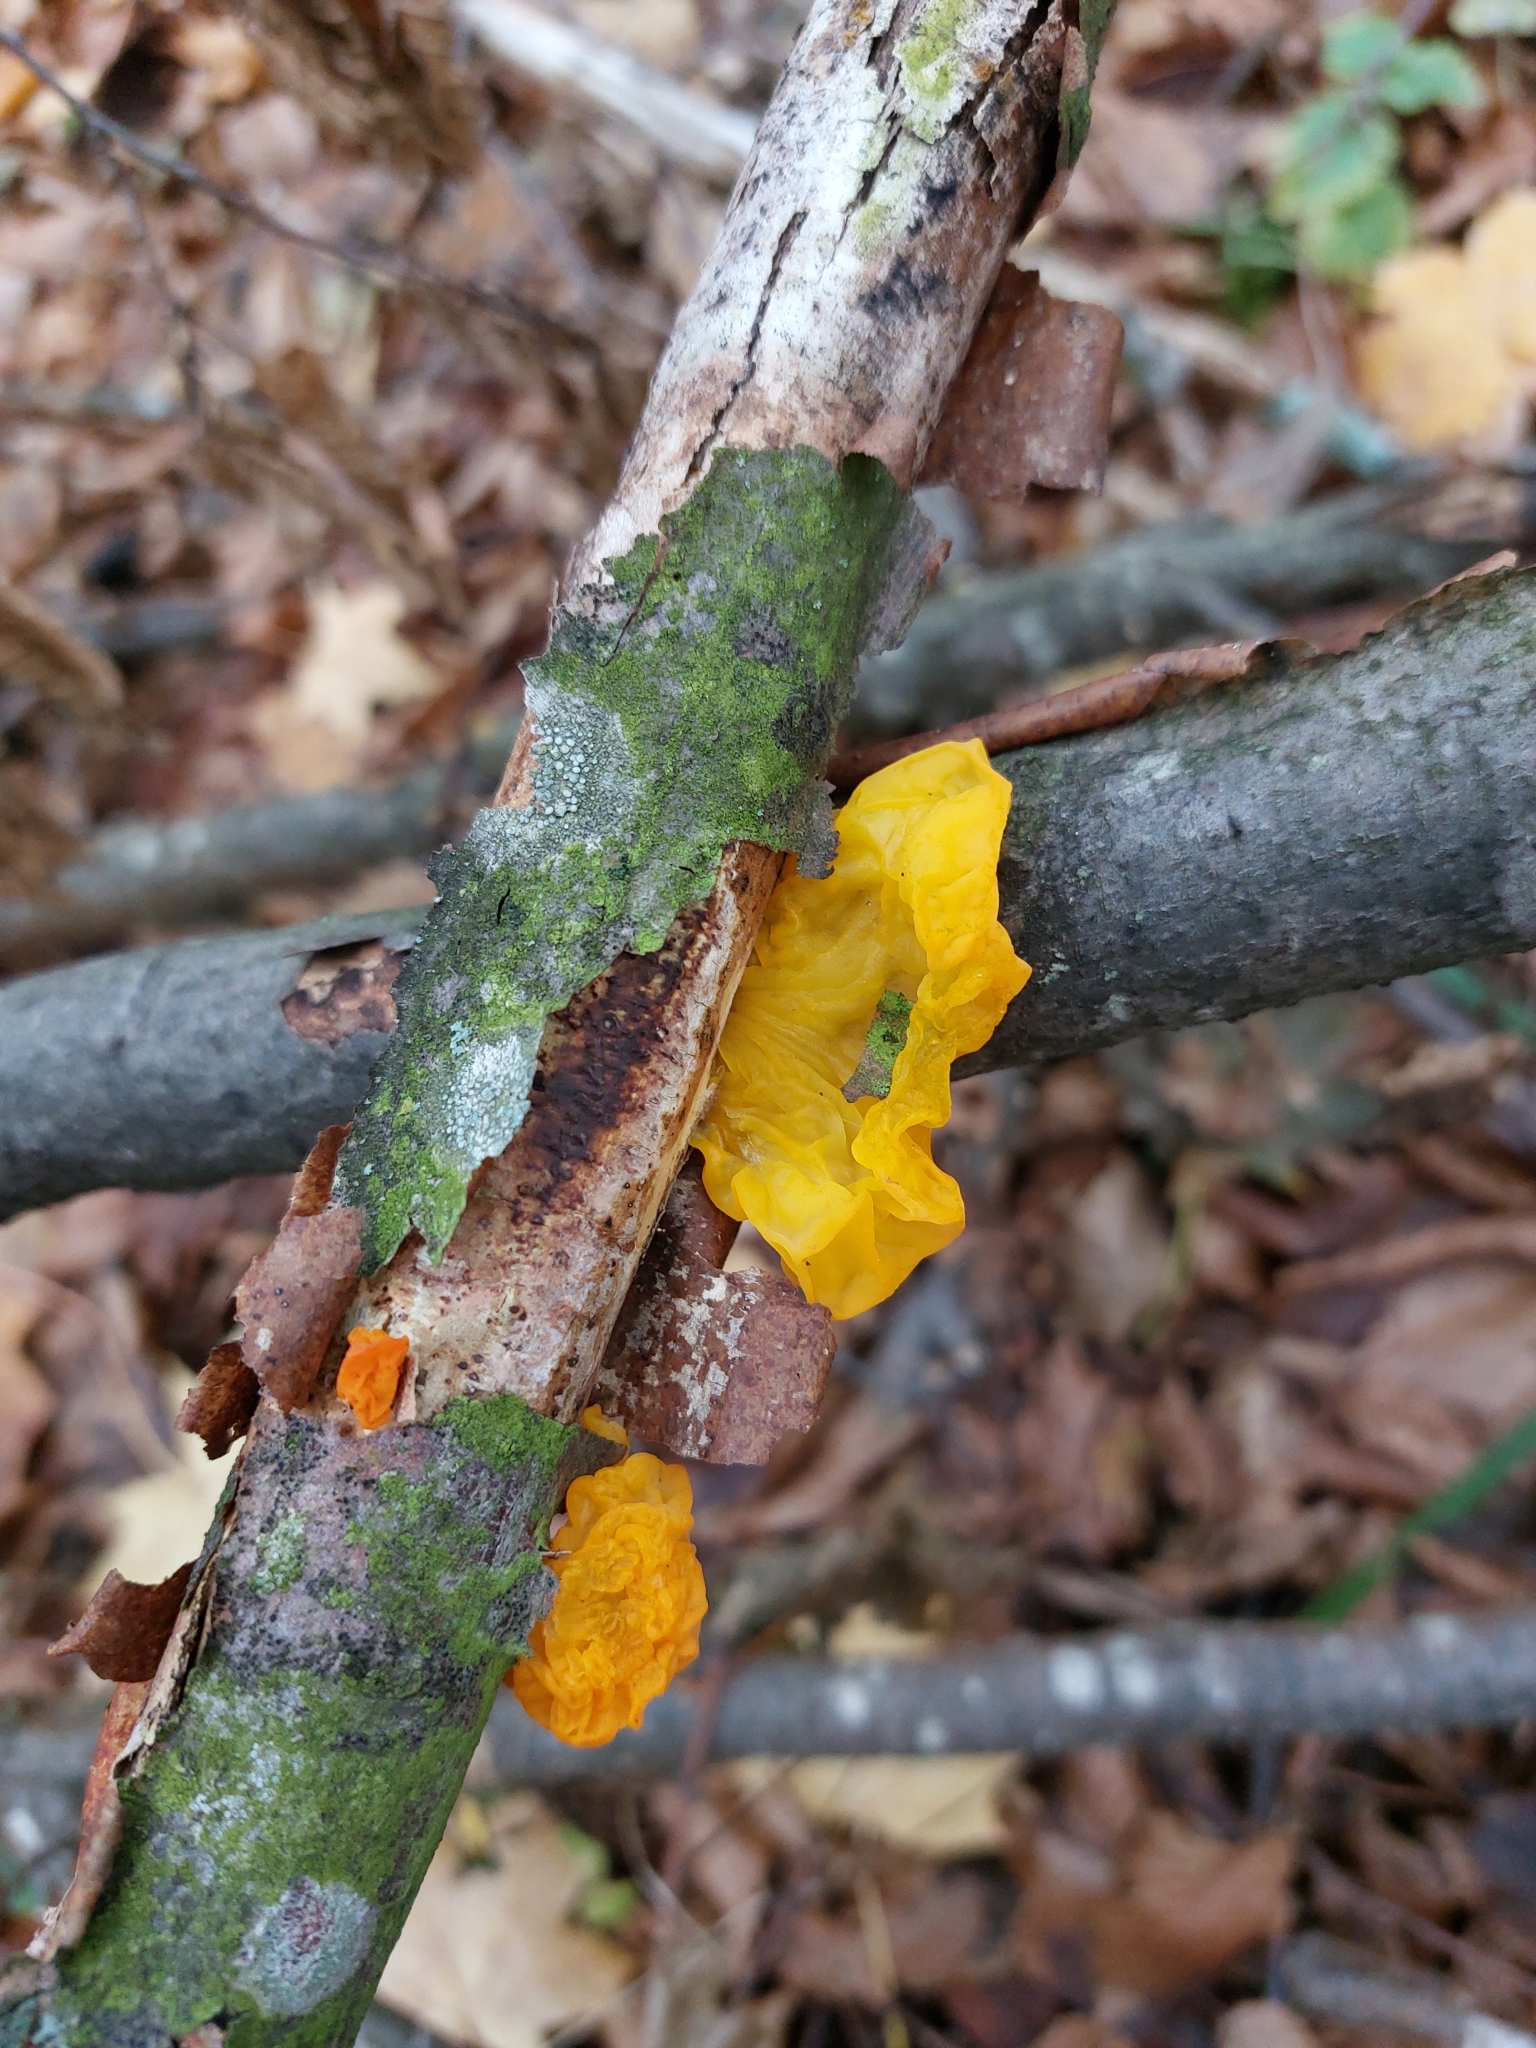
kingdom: Fungi
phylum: Basidiomycota
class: Tremellomycetes
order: Tremellales
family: Tremellaceae
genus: Tremella
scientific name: Tremella mesenterica
